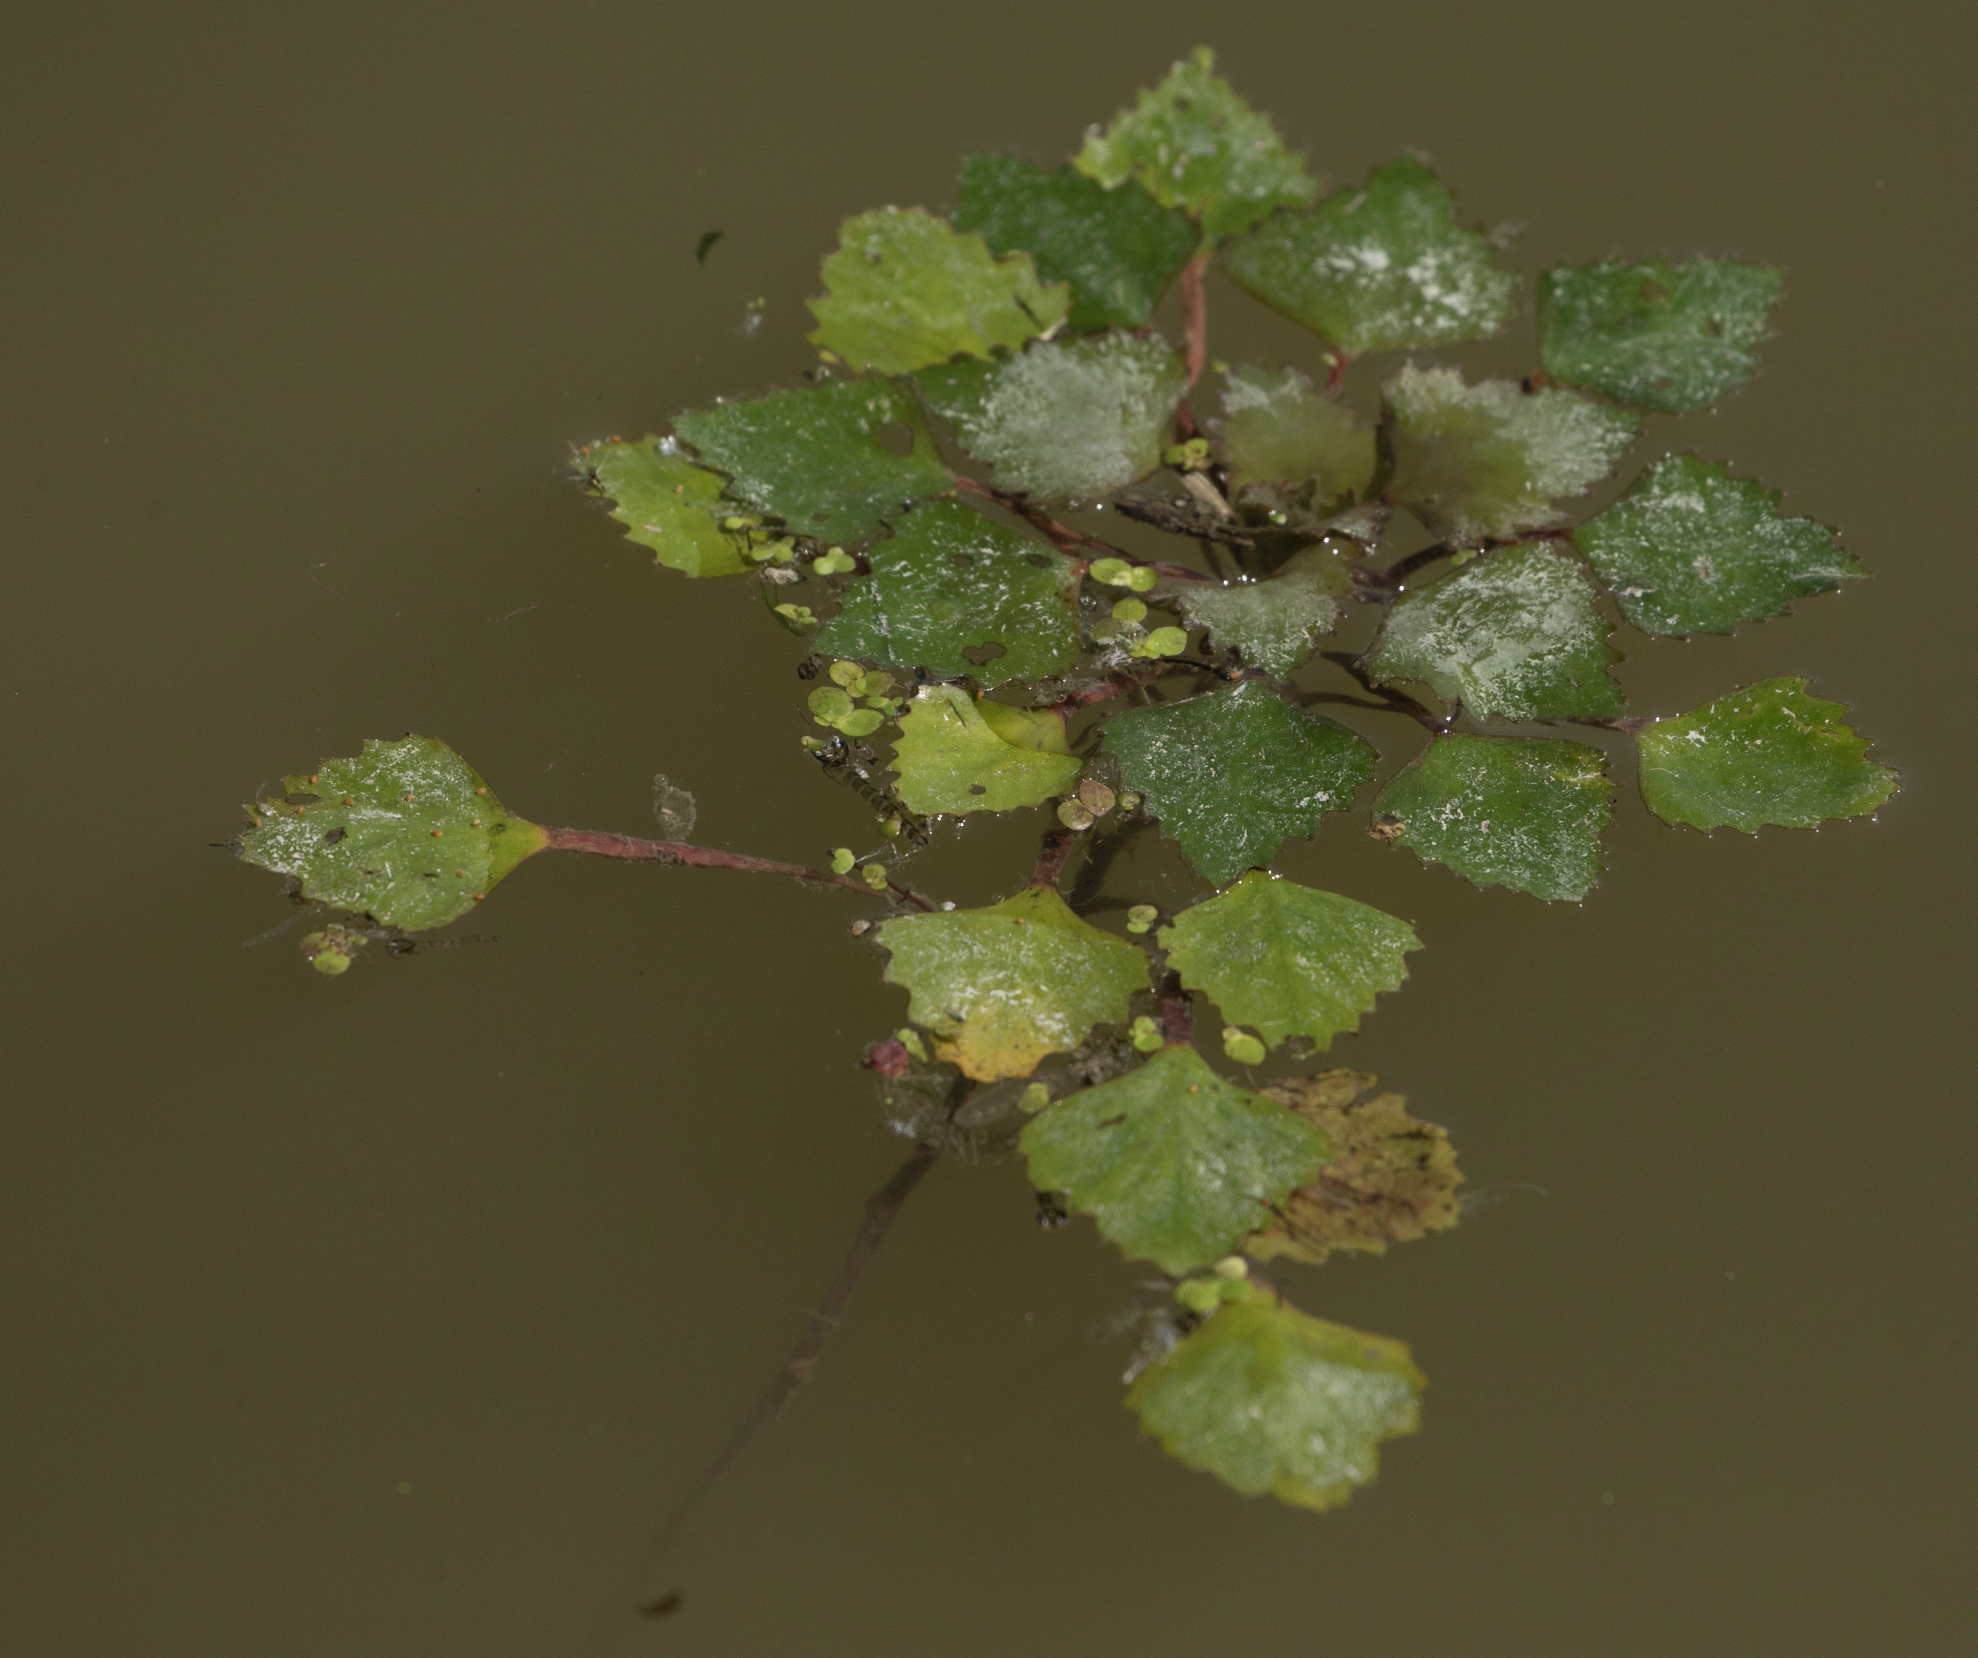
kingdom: Plantae
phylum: Tracheophyta
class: Magnoliopsida
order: Myrtales
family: Lythraceae
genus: Trapa
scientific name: Trapa natans
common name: Water chestnut
